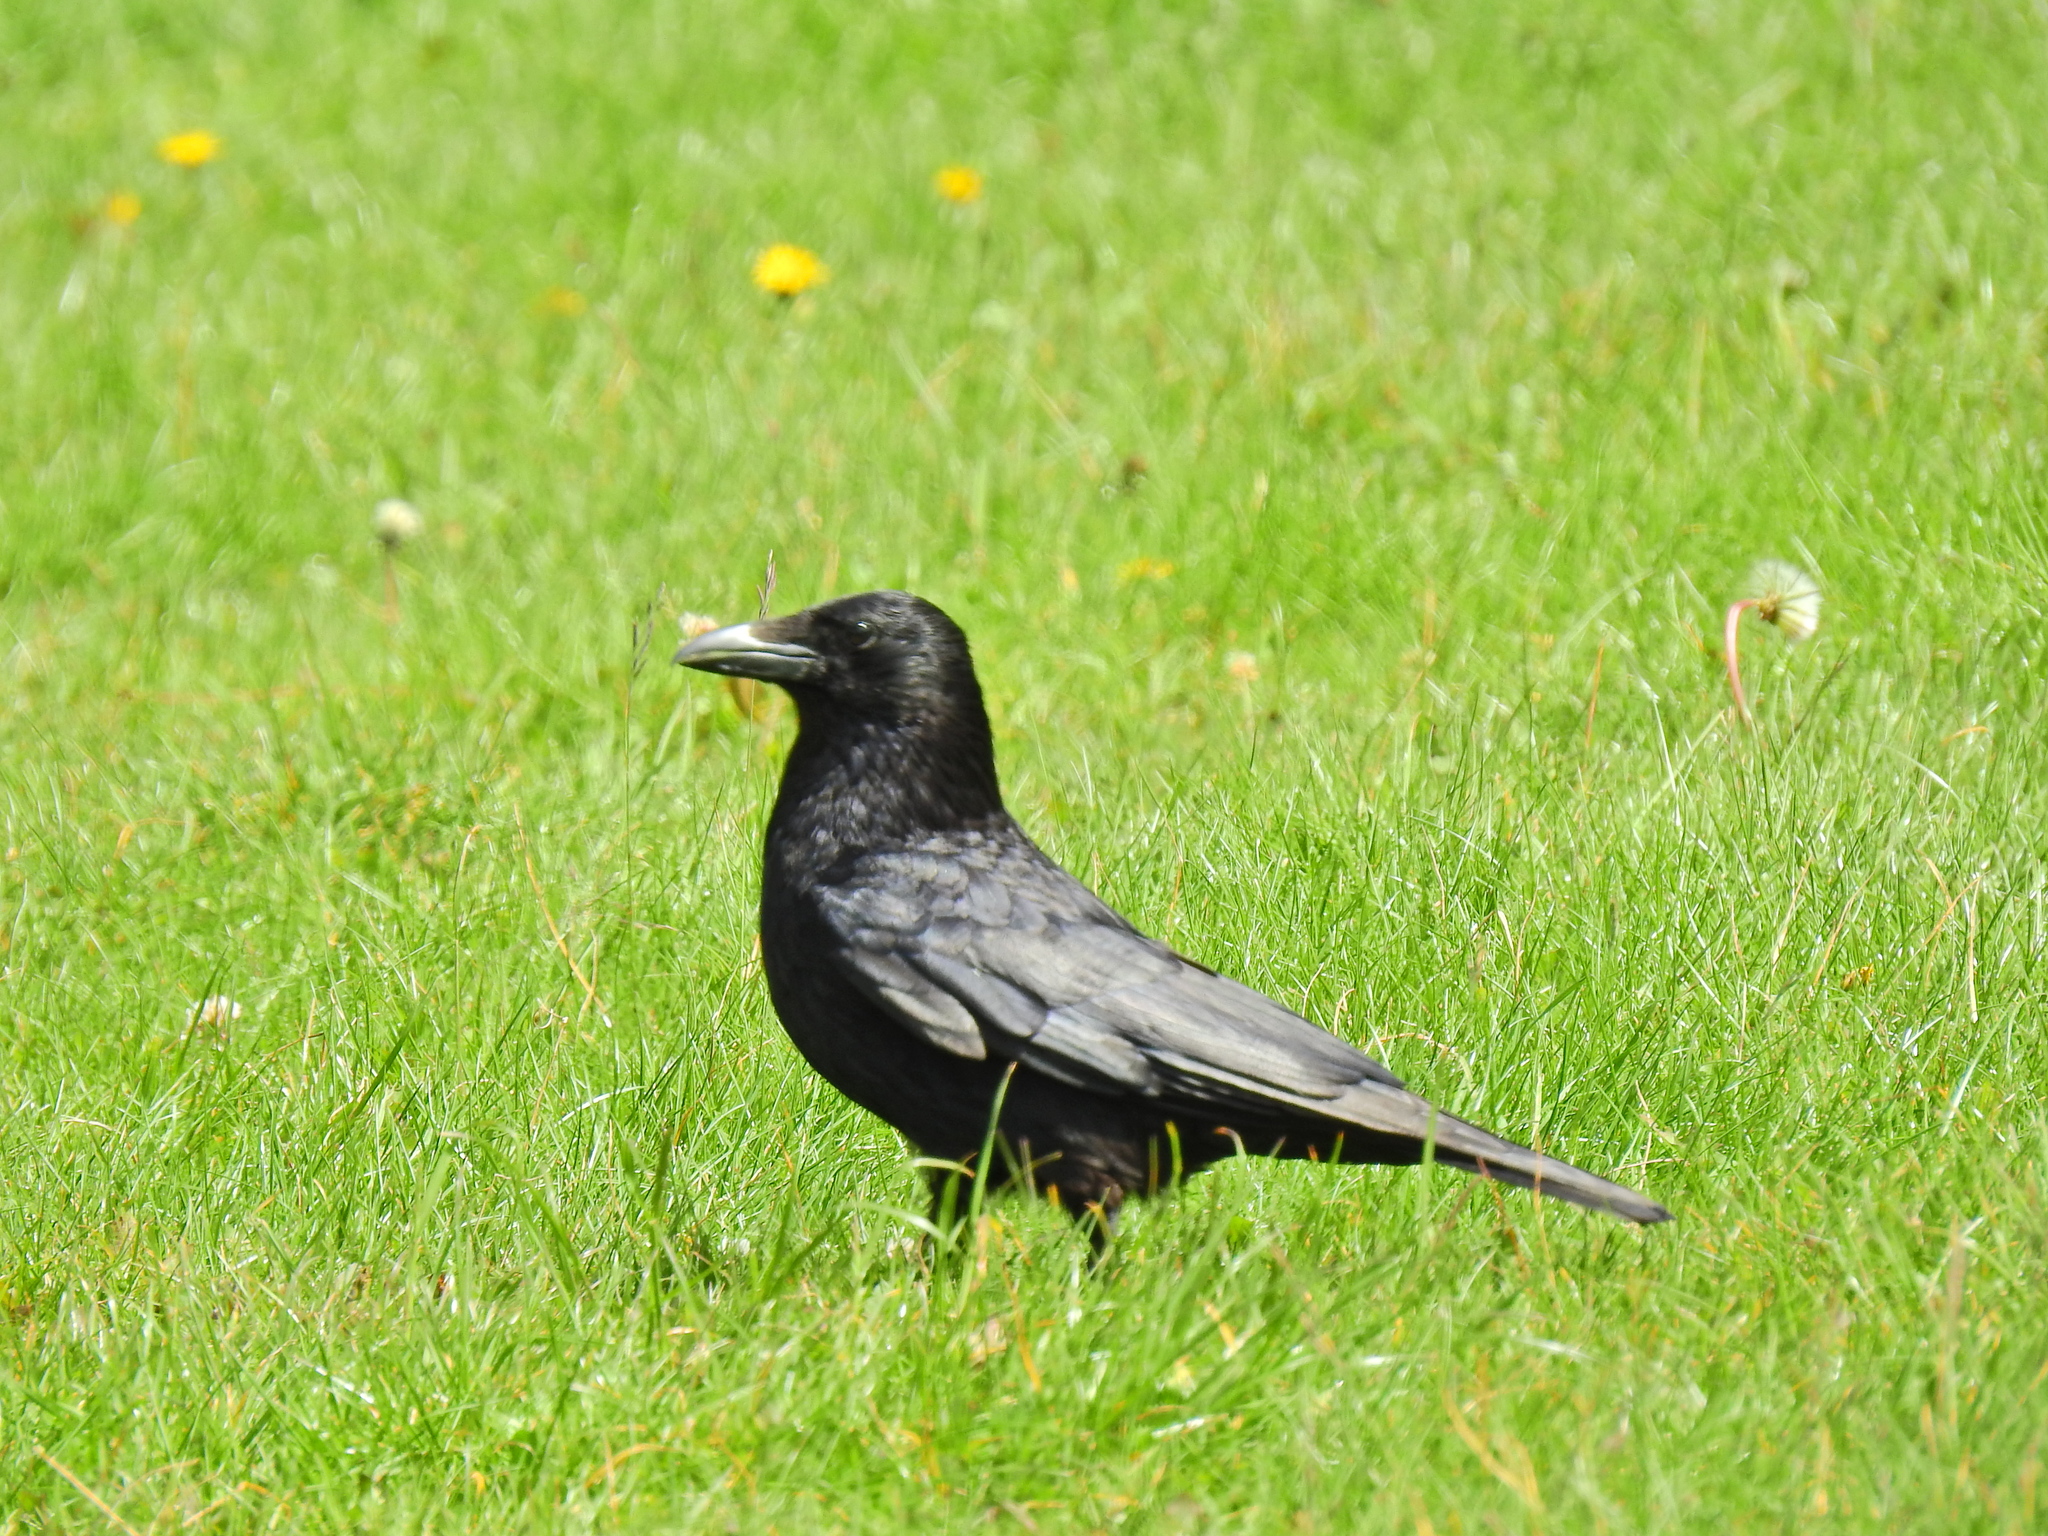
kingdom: Animalia
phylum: Chordata
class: Aves
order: Passeriformes
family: Corvidae
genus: Corvus
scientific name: Corvus corone
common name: Carrion crow
